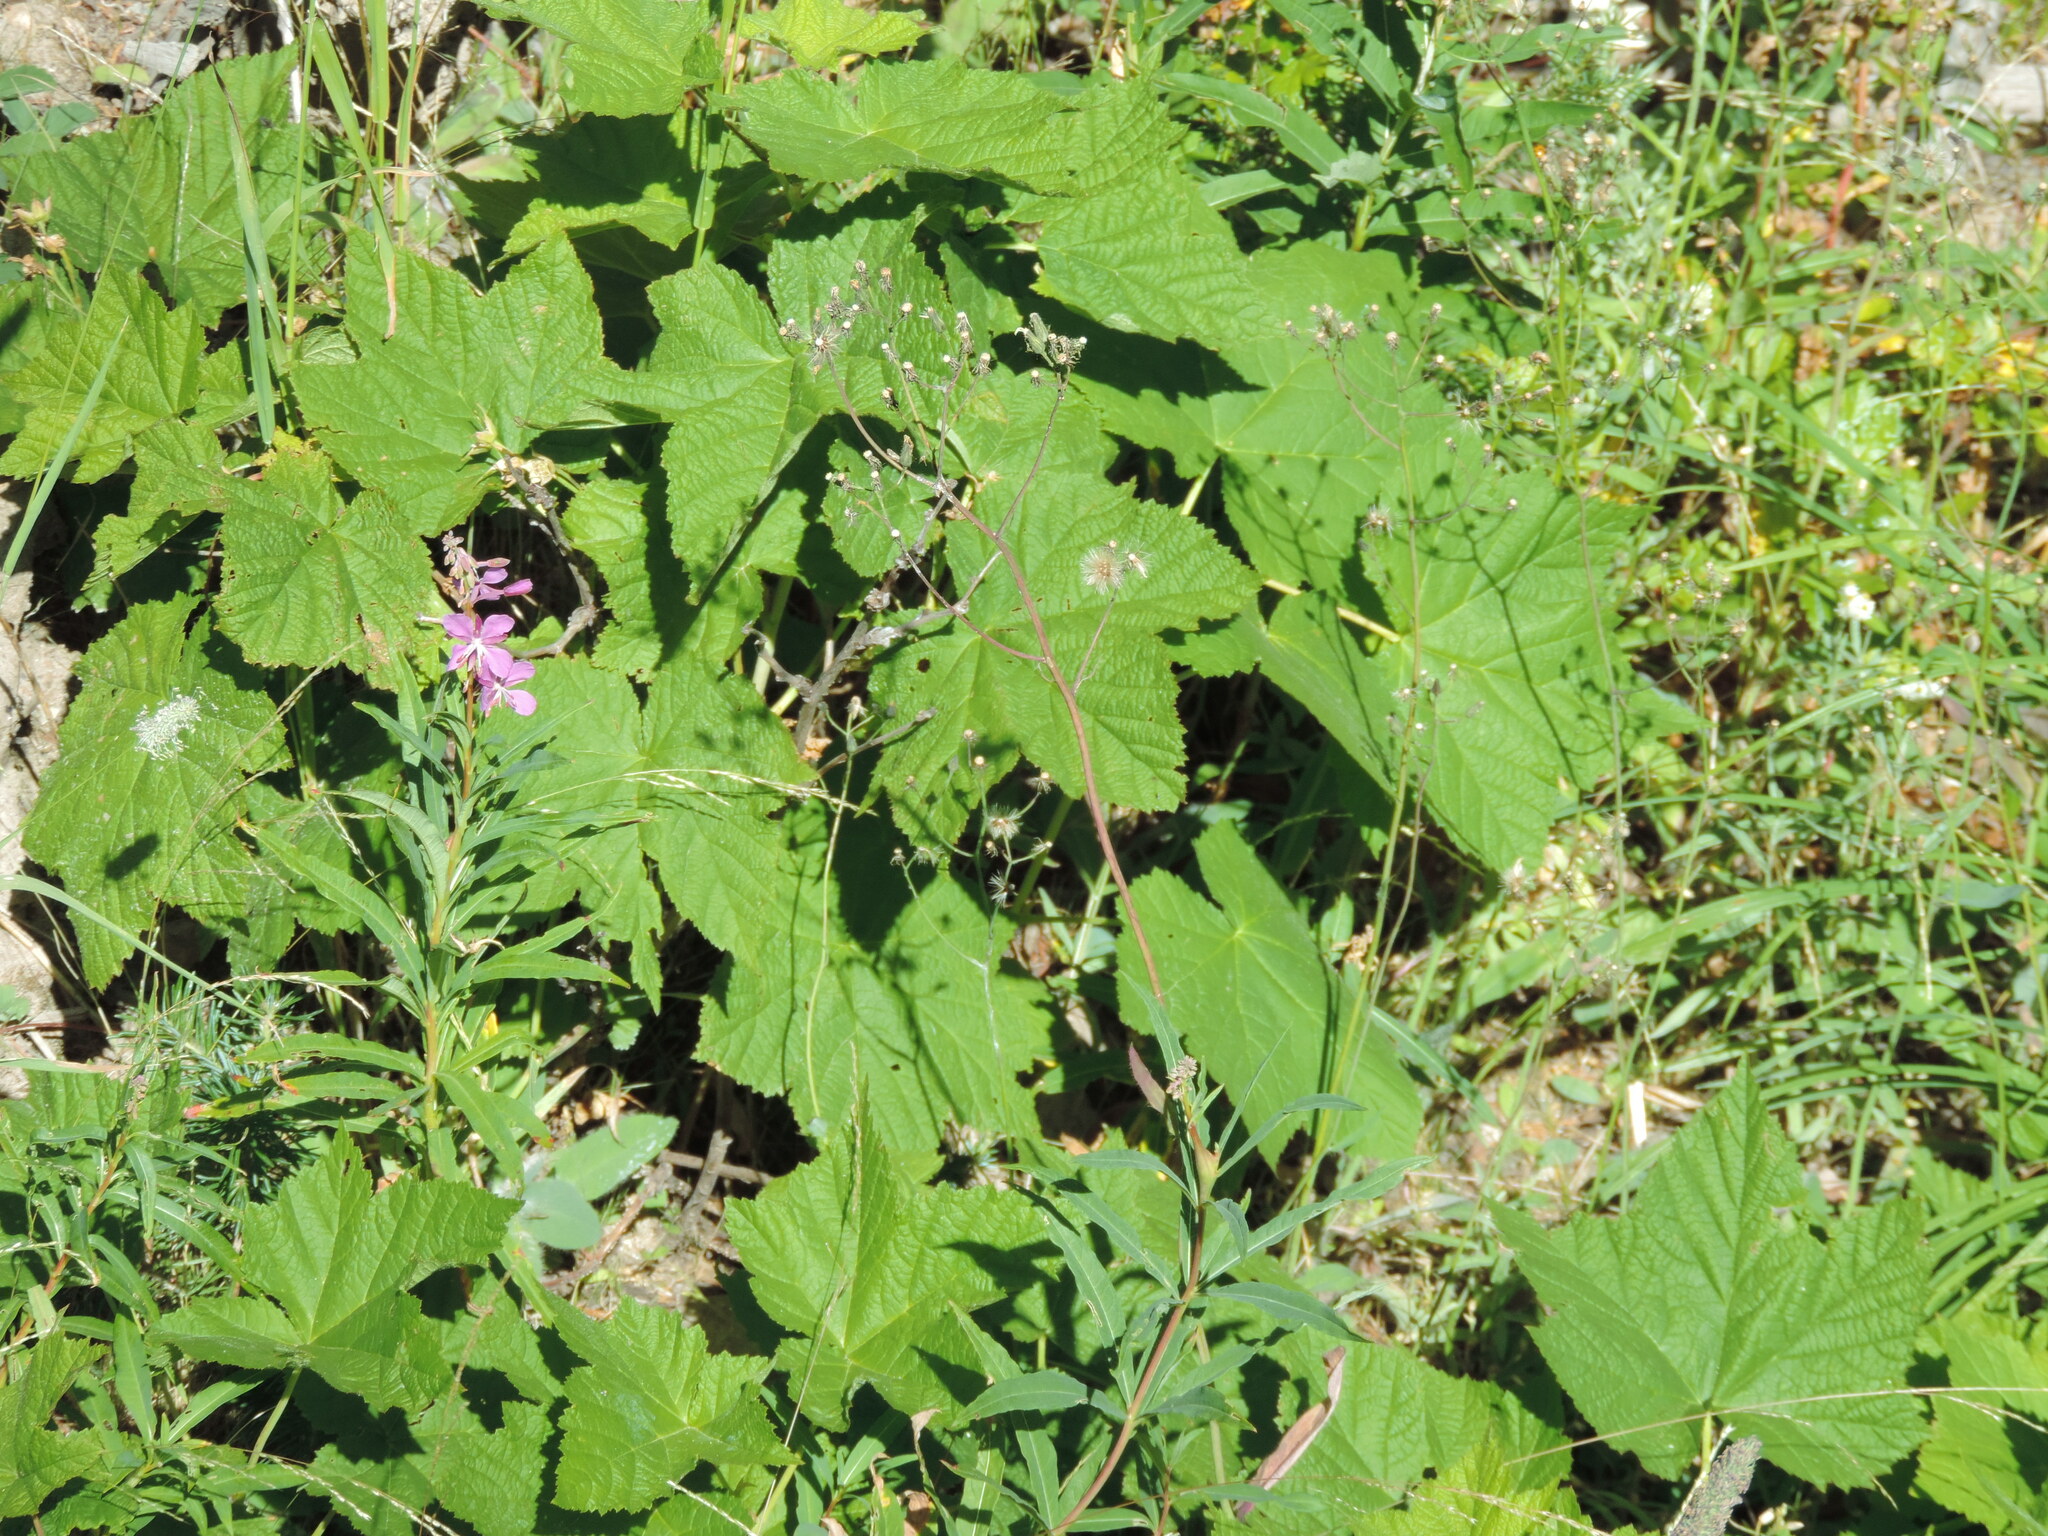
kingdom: Plantae
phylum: Tracheophyta
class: Magnoliopsida
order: Rosales
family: Rosaceae
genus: Rubus
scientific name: Rubus parviflorus
